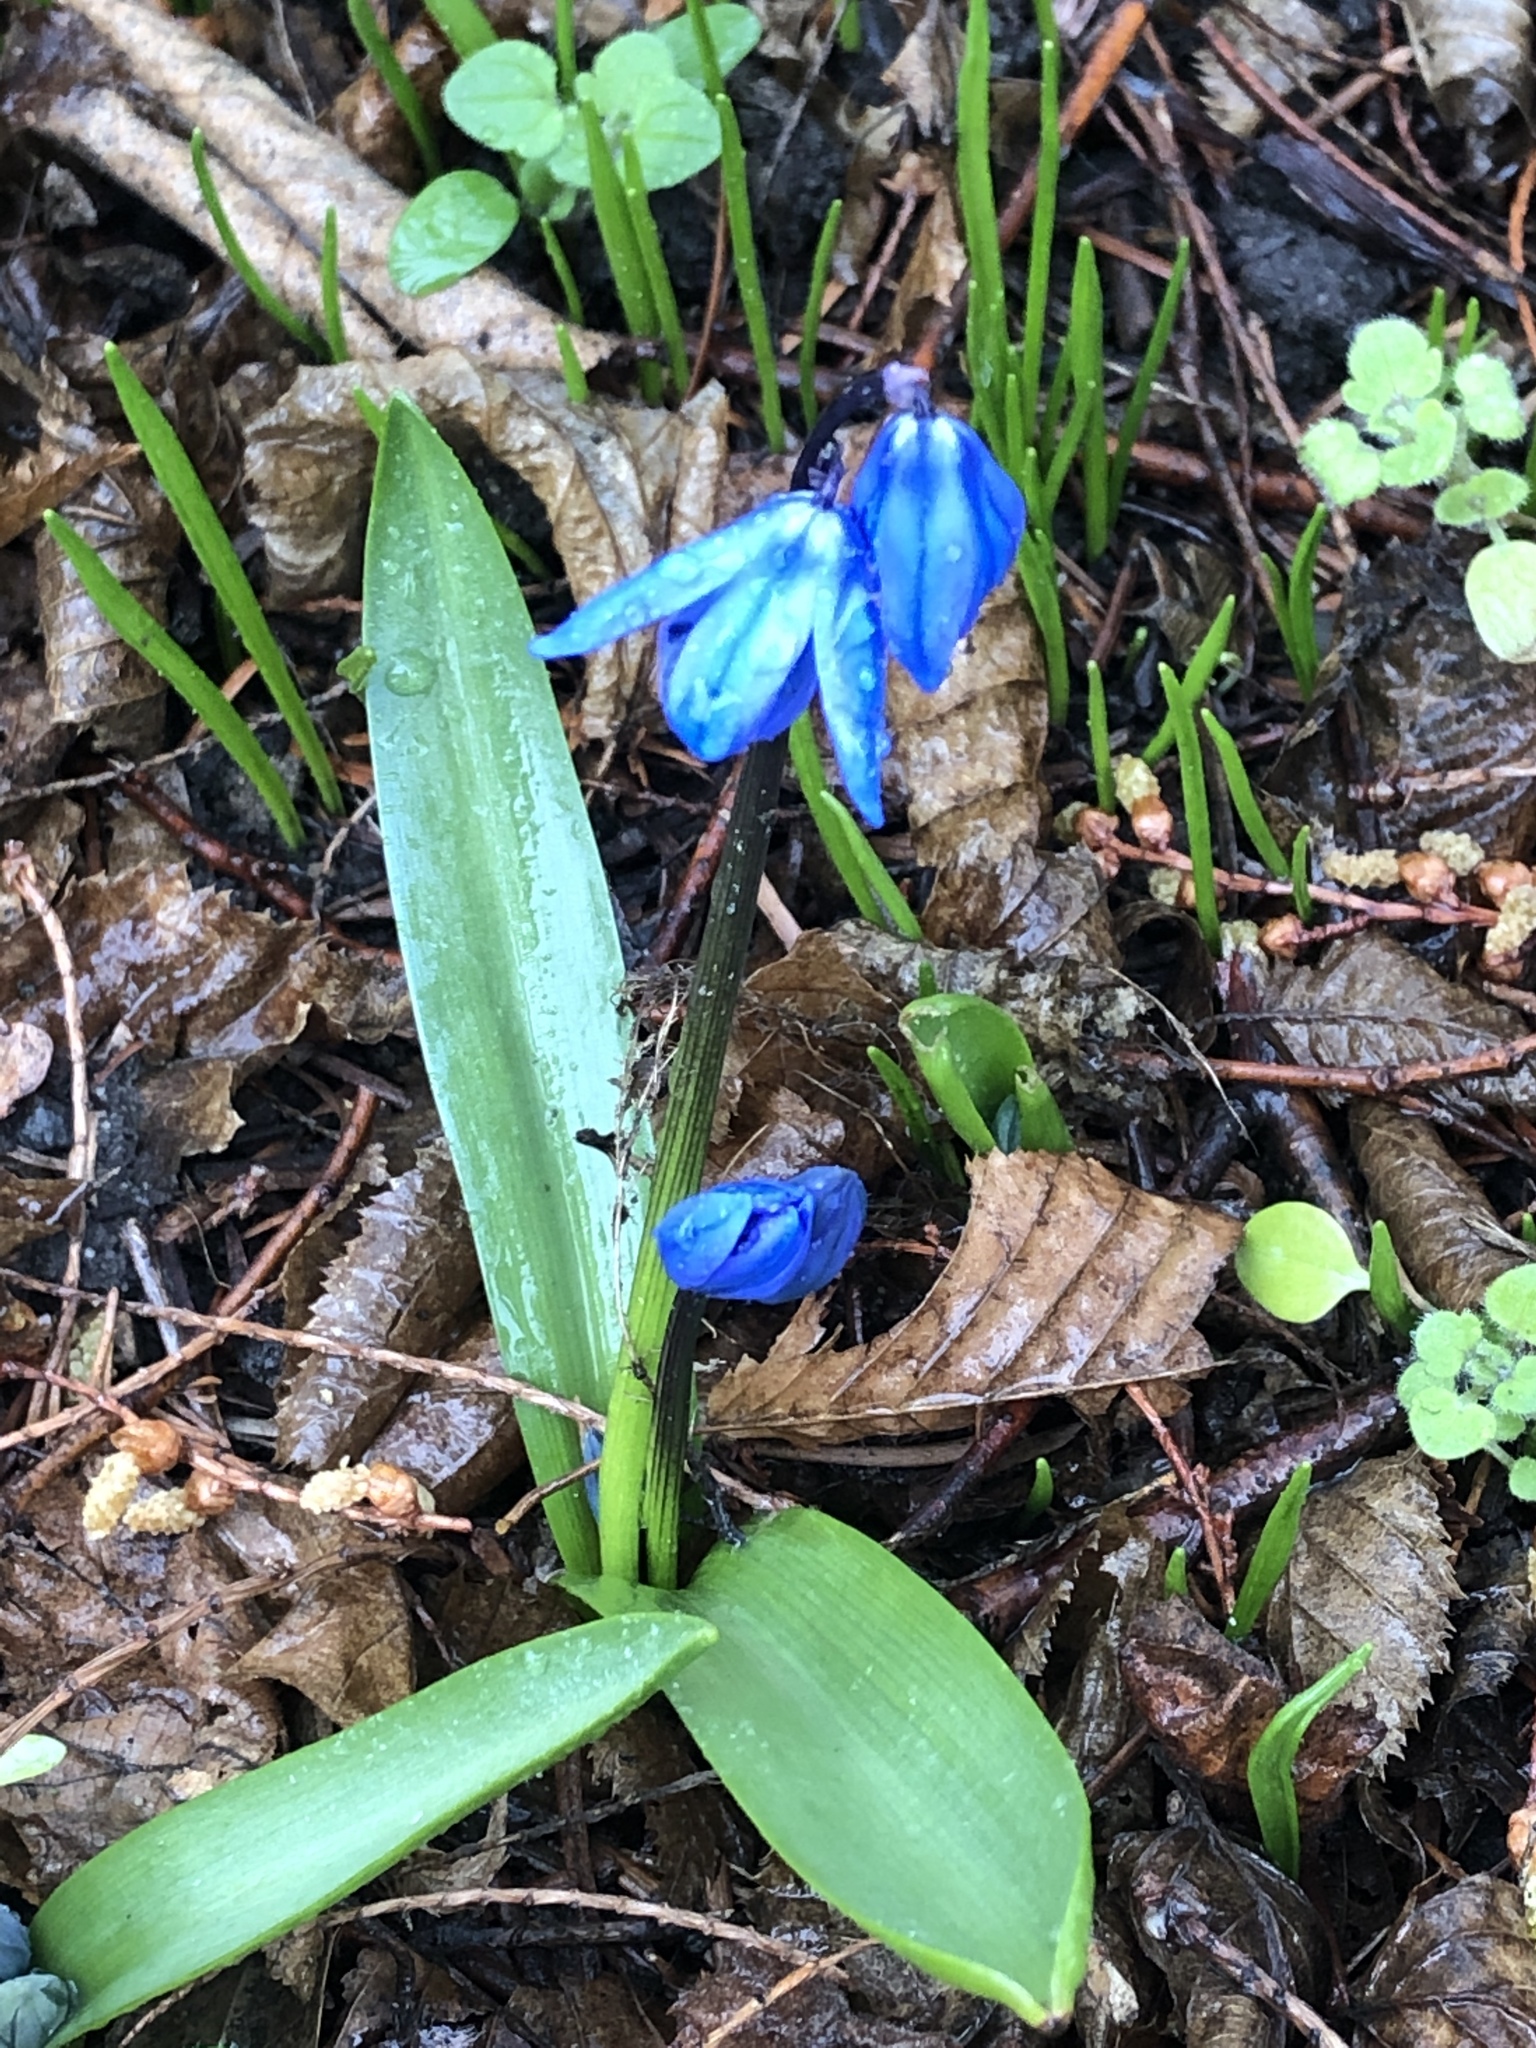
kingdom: Plantae
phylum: Tracheophyta
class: Liliopsida
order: Asparagales
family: Asparagaceae
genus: Scilla
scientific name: Scilla siberica
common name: Siberian squill
